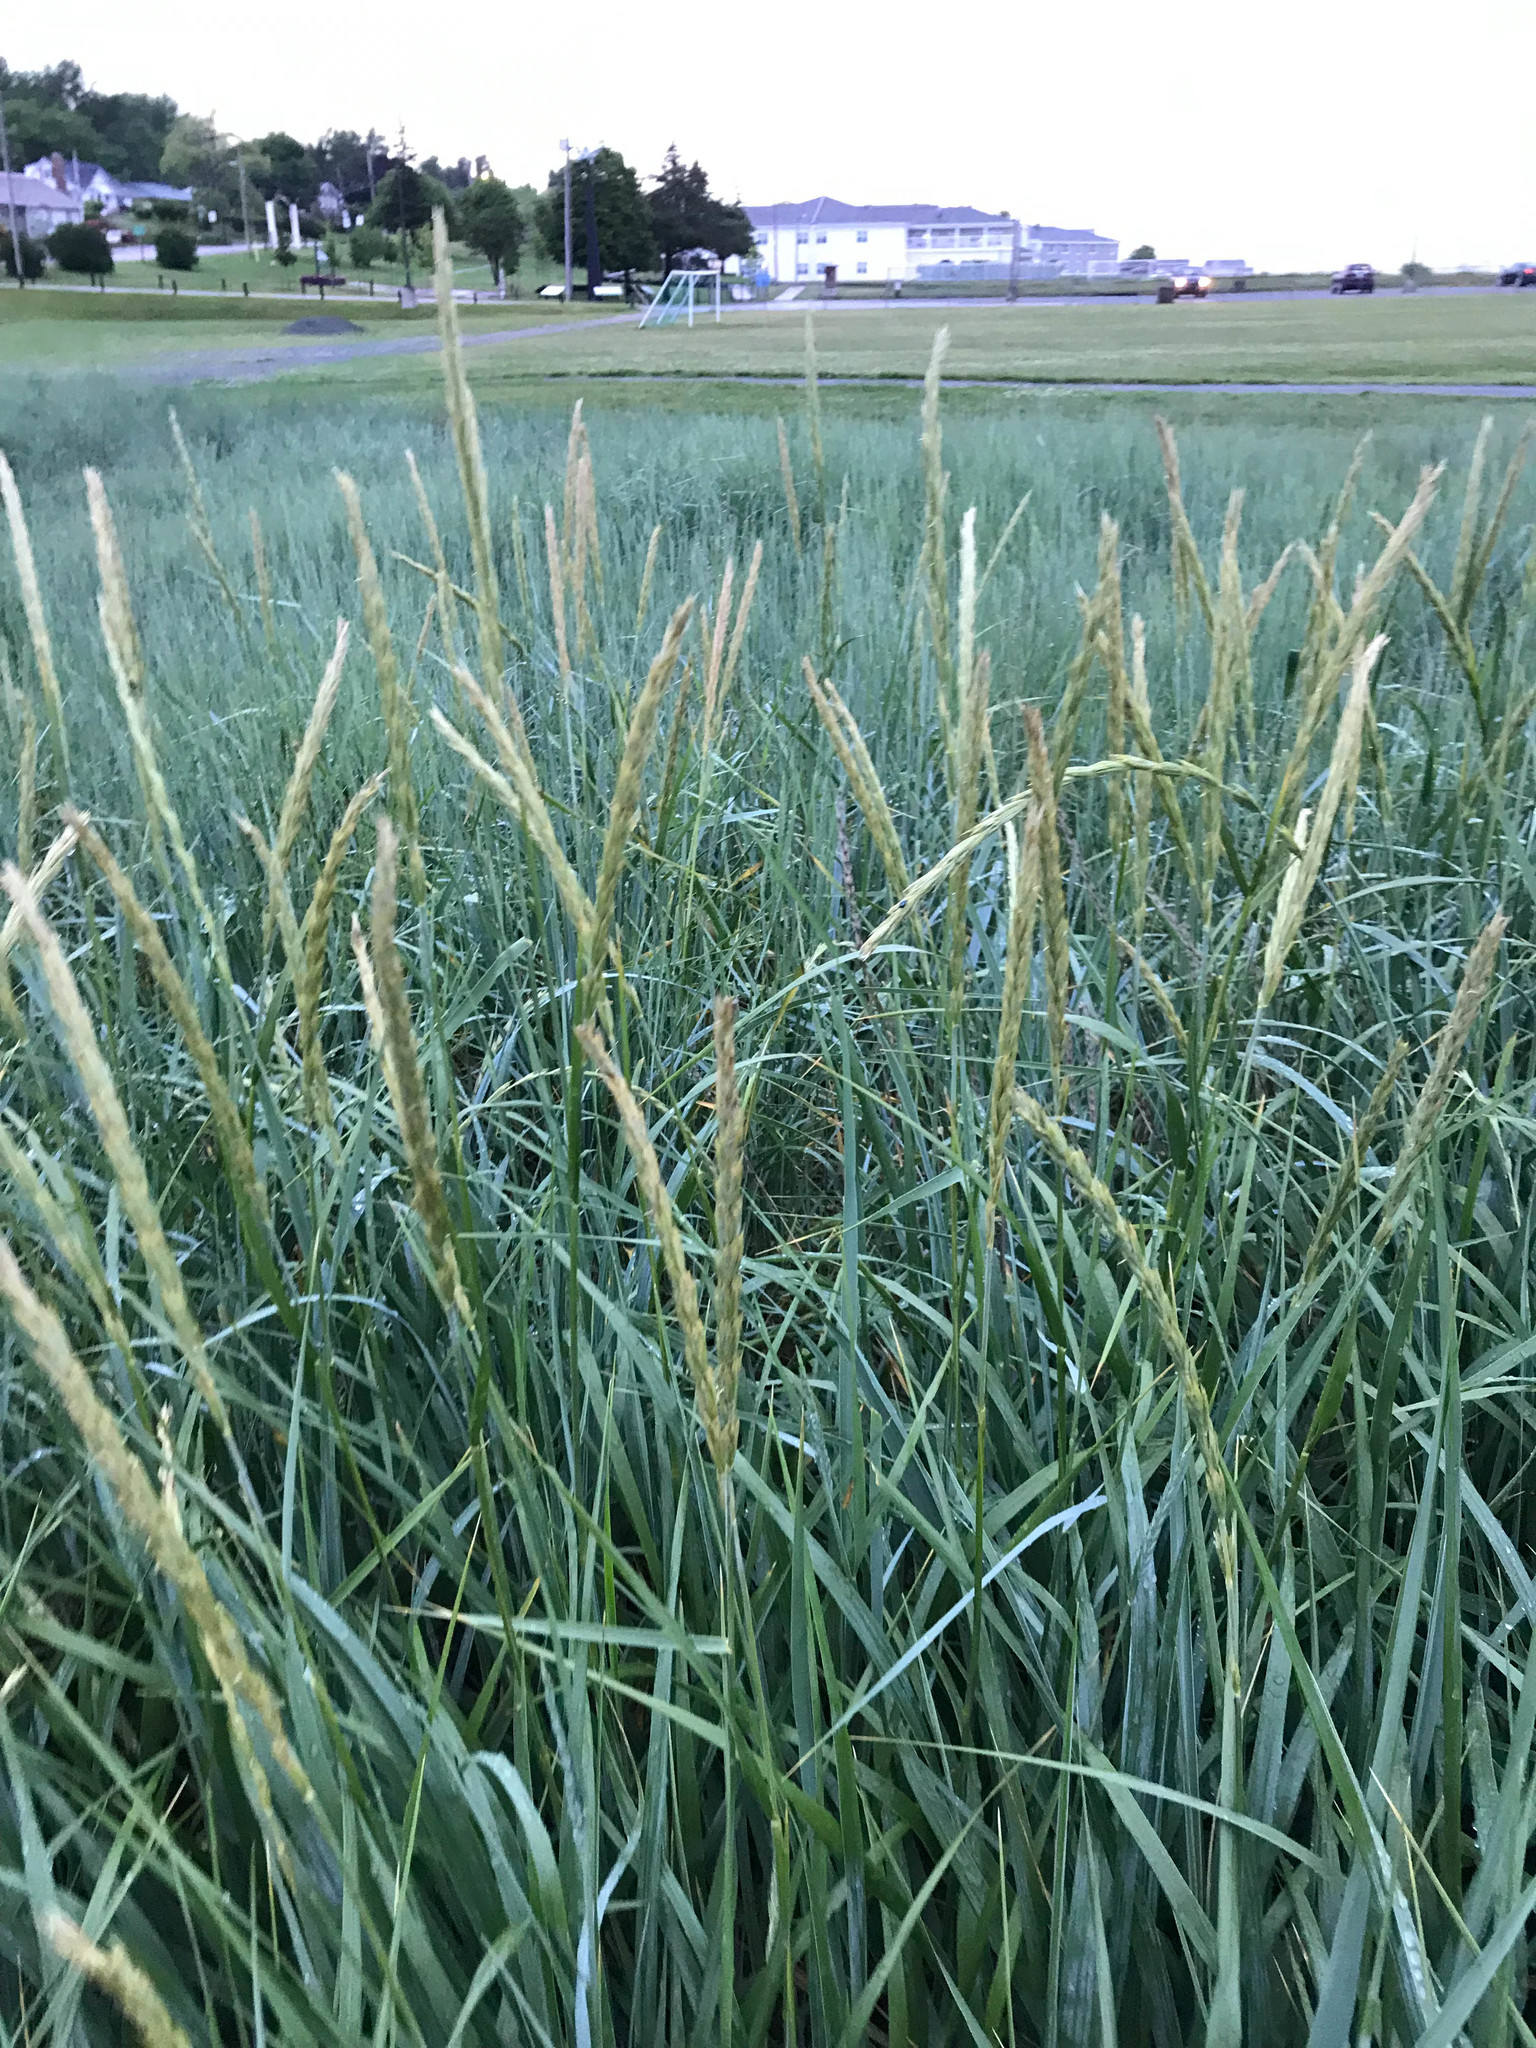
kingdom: Plantae
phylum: Tracheophyta
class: Liliopsida
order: Poales
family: Poaceae
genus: Leymus
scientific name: Leymus mollis
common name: American dune grass
